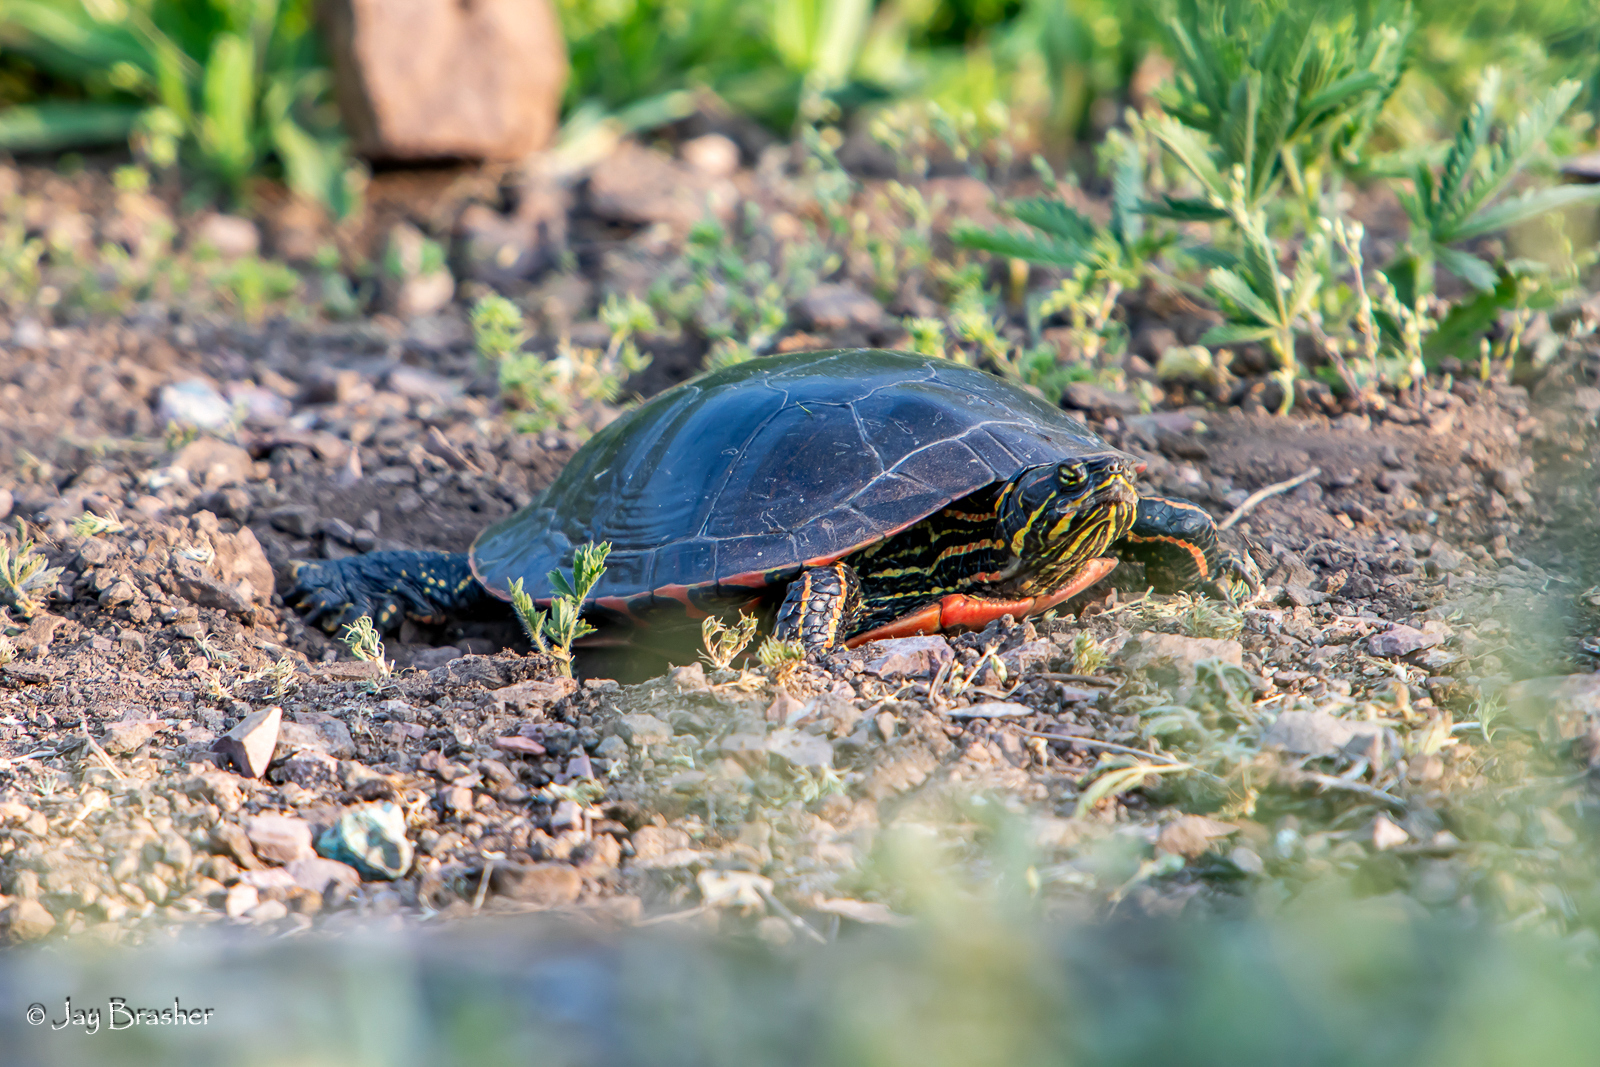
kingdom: Animalia
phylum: Chordata
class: Testudines
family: Emydidae
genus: Chrysemys
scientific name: Chrysemys picta
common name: Painted turtle
